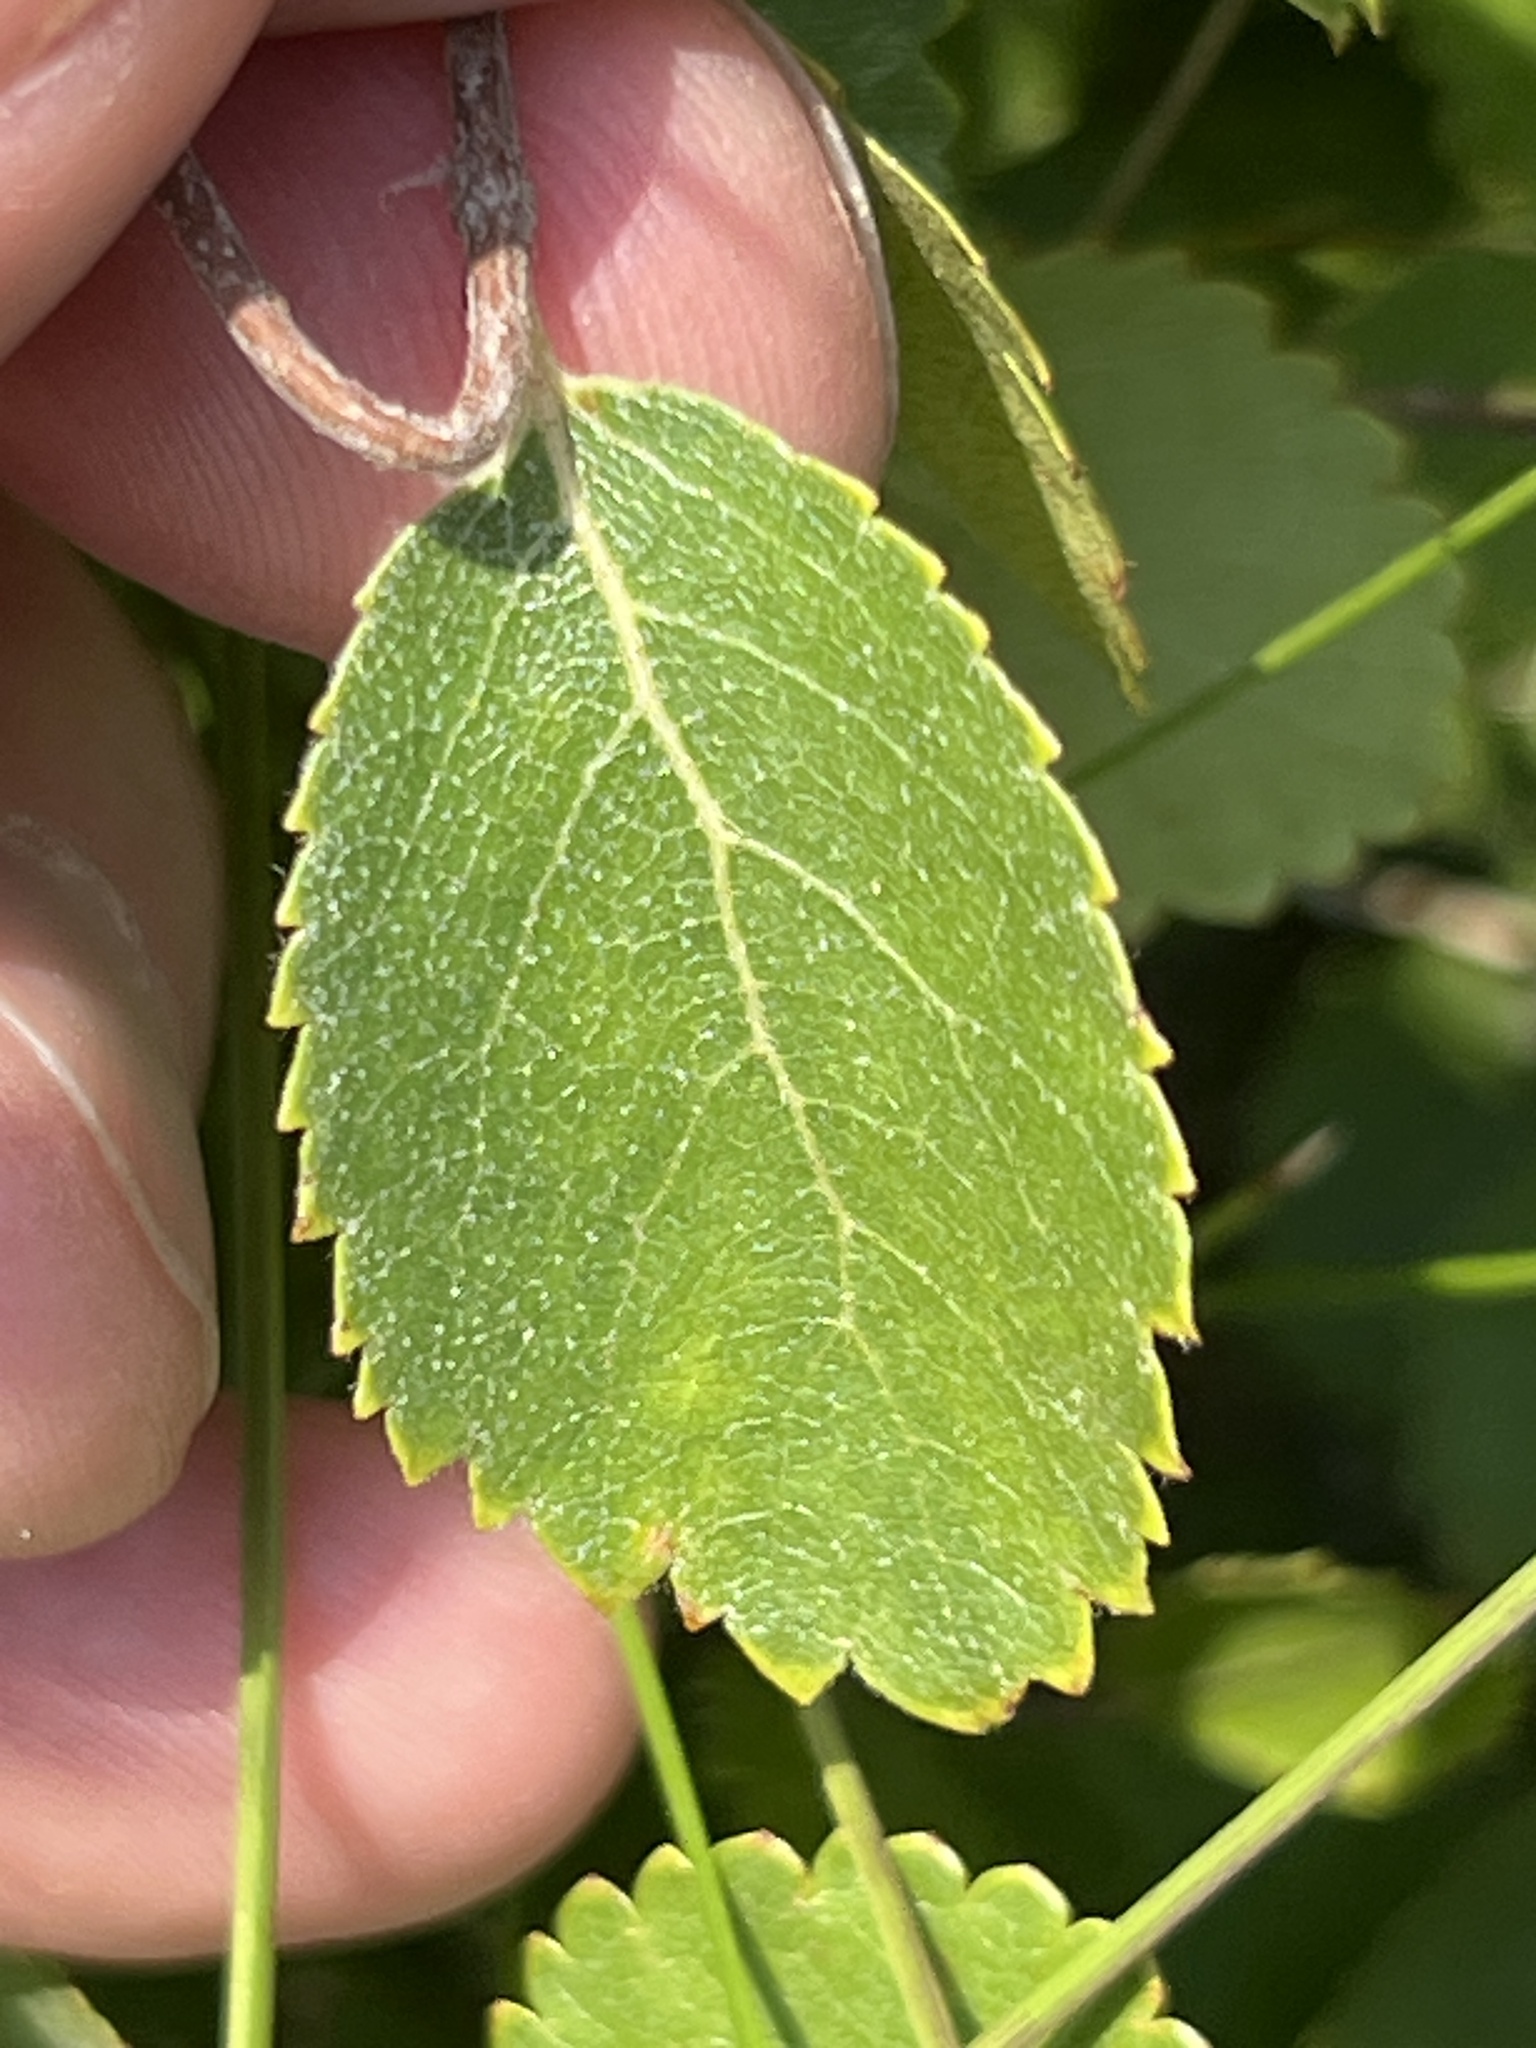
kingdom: Plantae
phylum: Tracheophyta
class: Magnoliopsida
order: Fagales
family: Betulaceae
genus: Betula
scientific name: Betula pumila
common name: Bog birch
